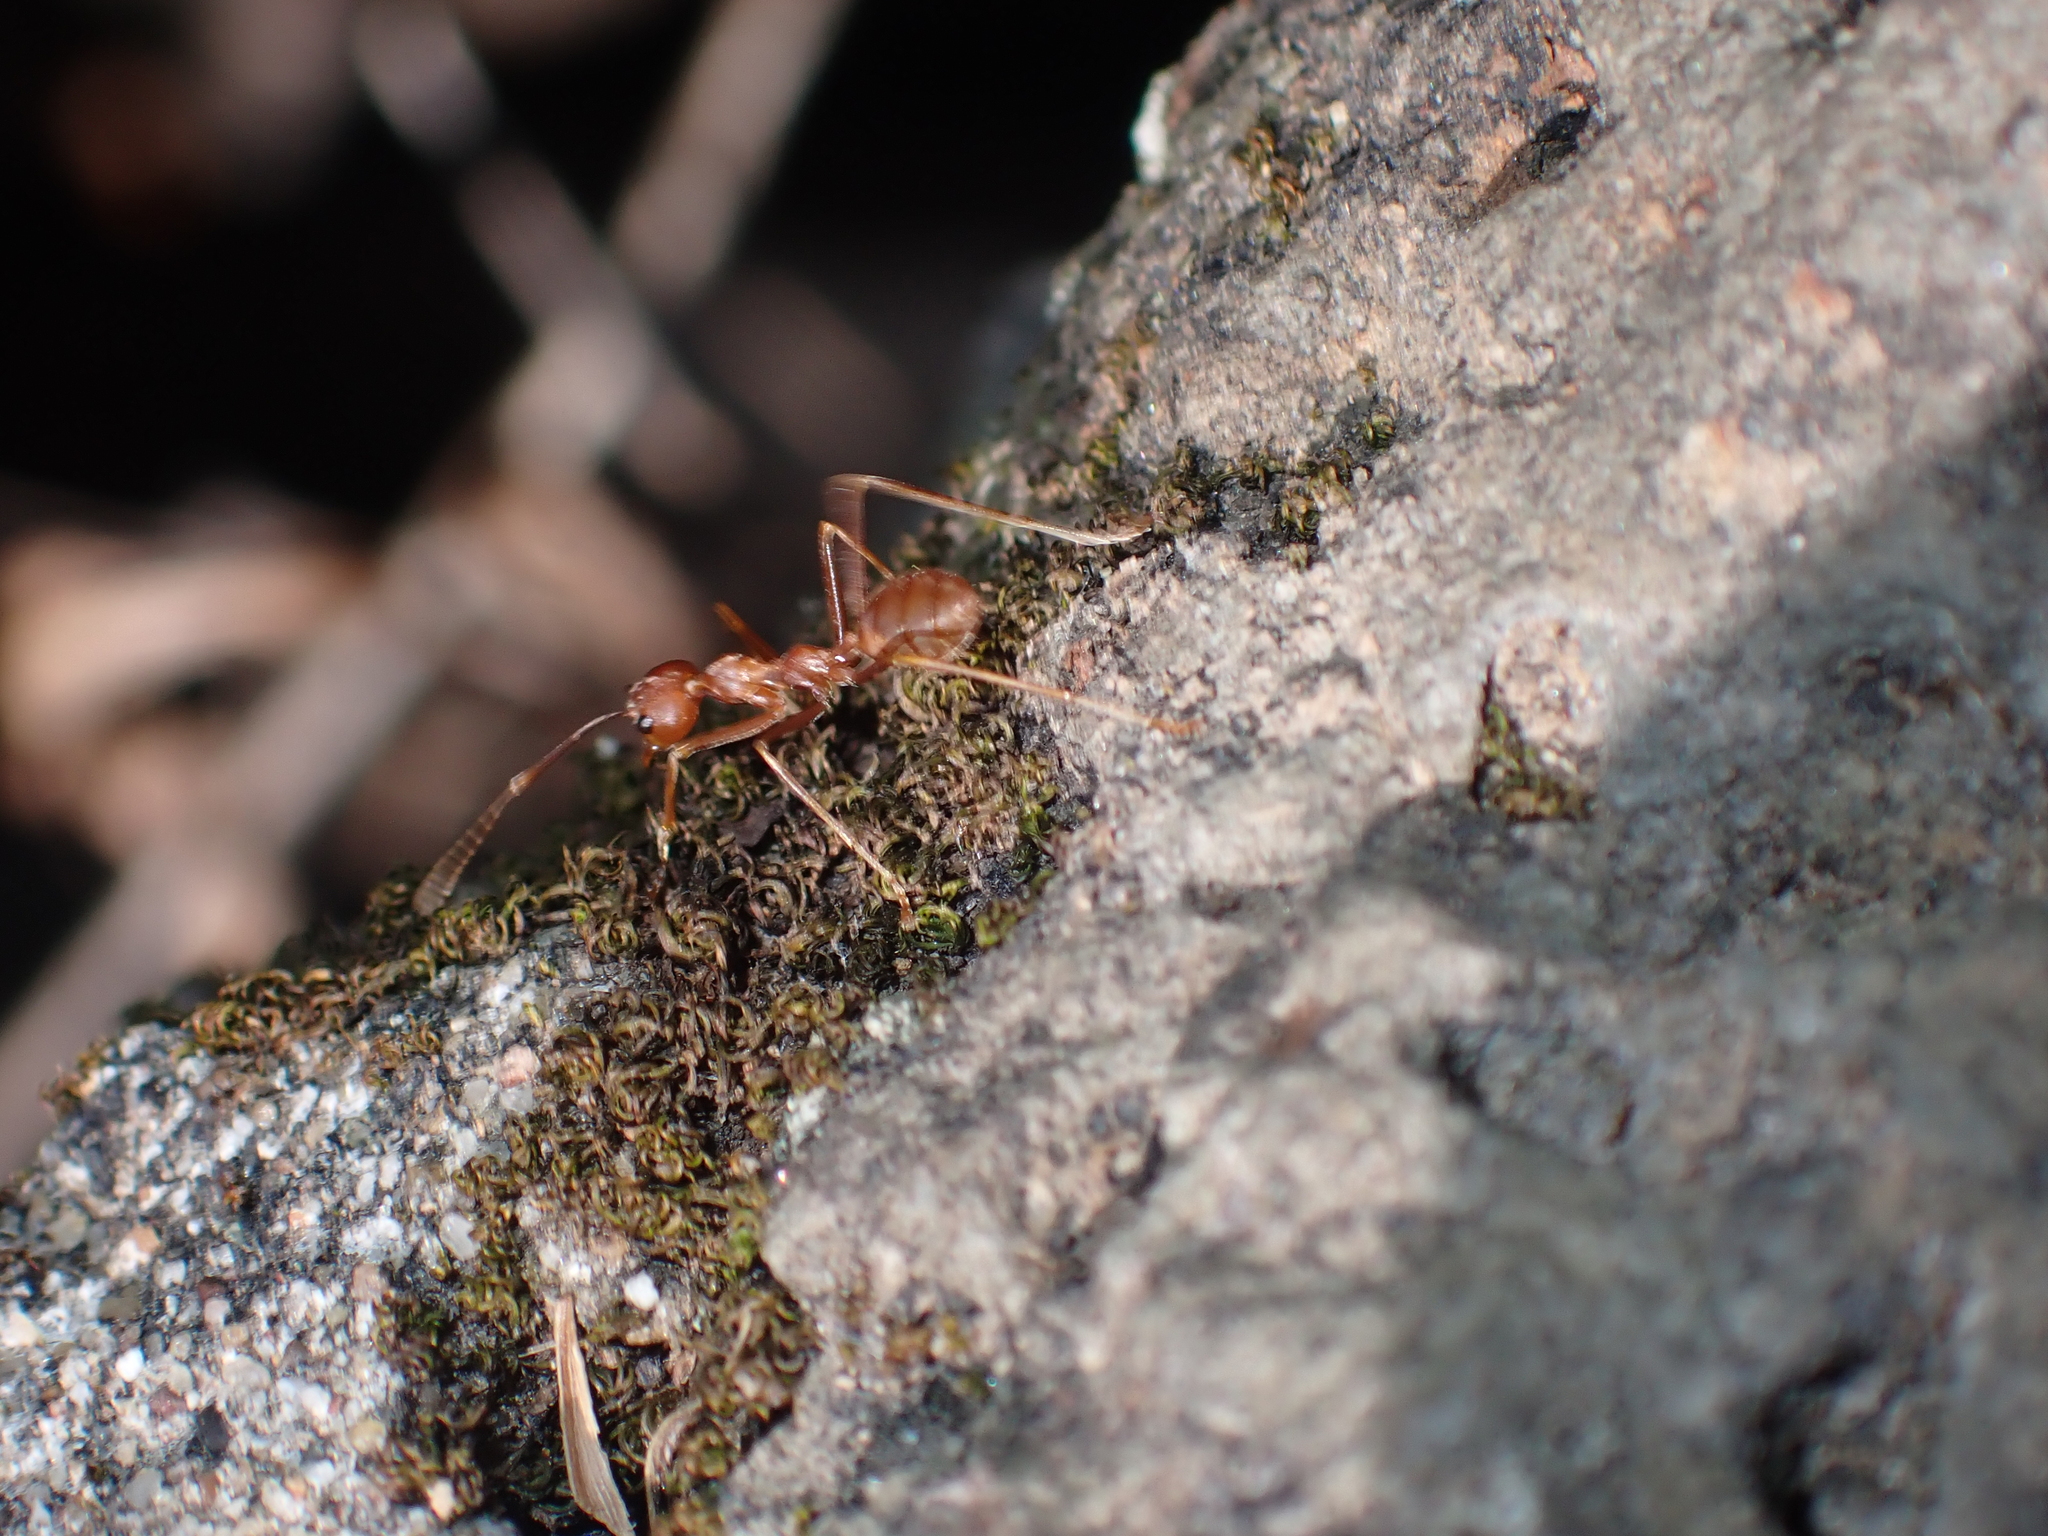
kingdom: Animalia
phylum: Arthropoda
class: Insecta
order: Hymenoptera
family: Formicidae
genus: Oecophylla
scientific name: Oecophylla smaragdina
